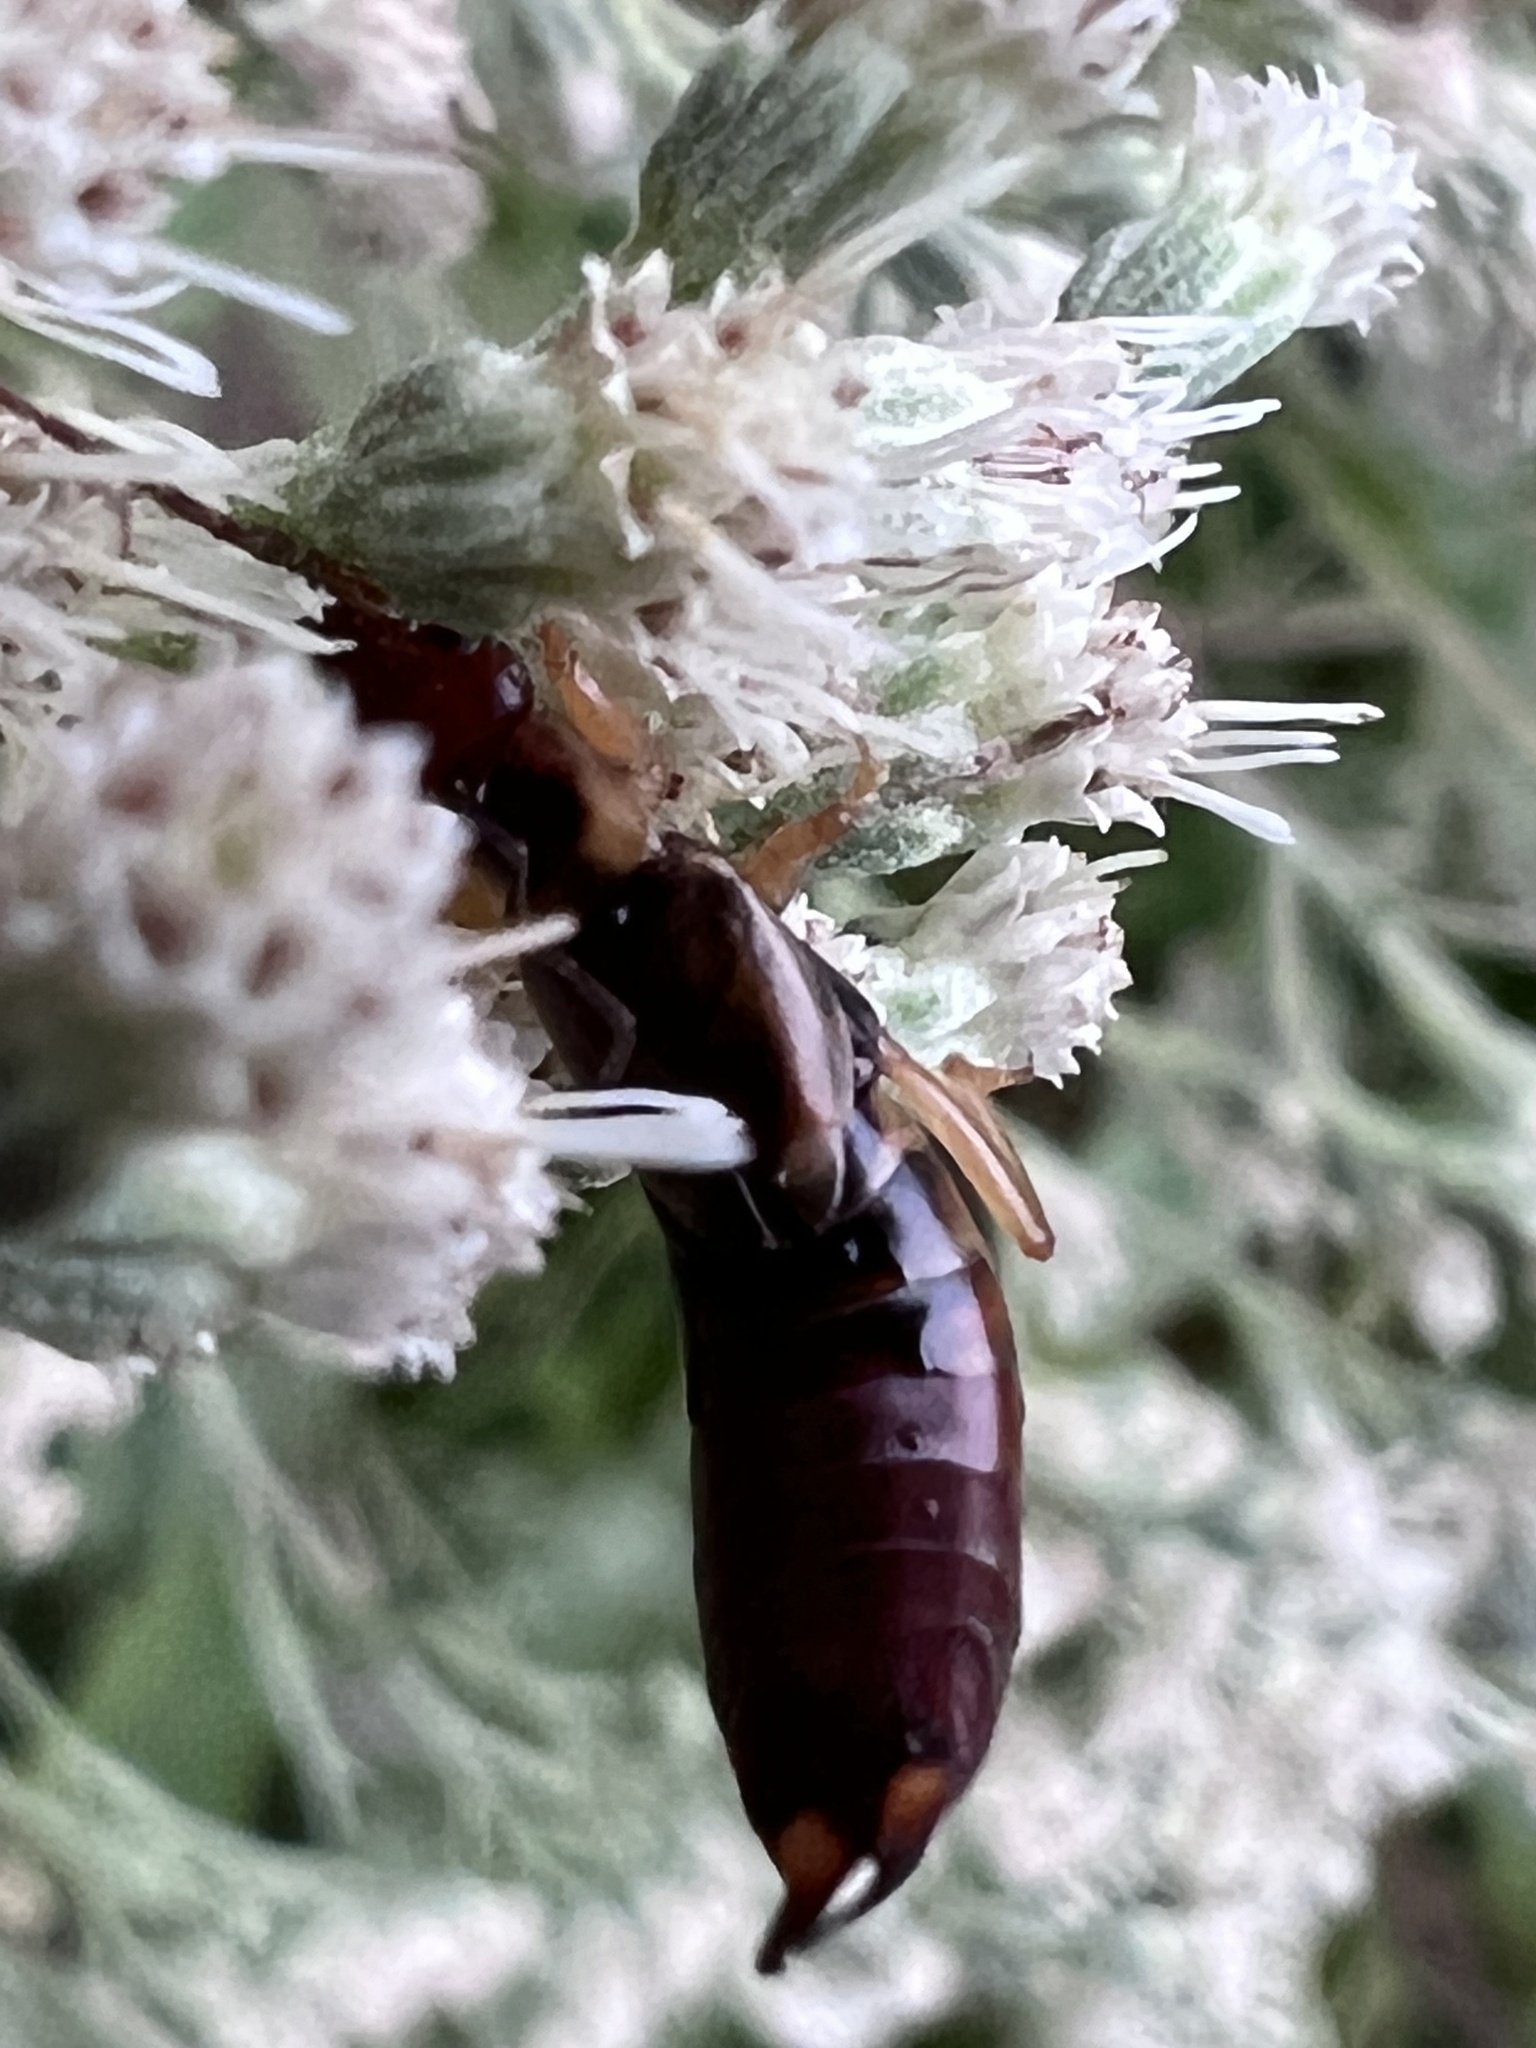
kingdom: Animalia
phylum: Arthropoda
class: Insecta
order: Dermaptera
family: Forficulidae
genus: Forficula
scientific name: Forficula
